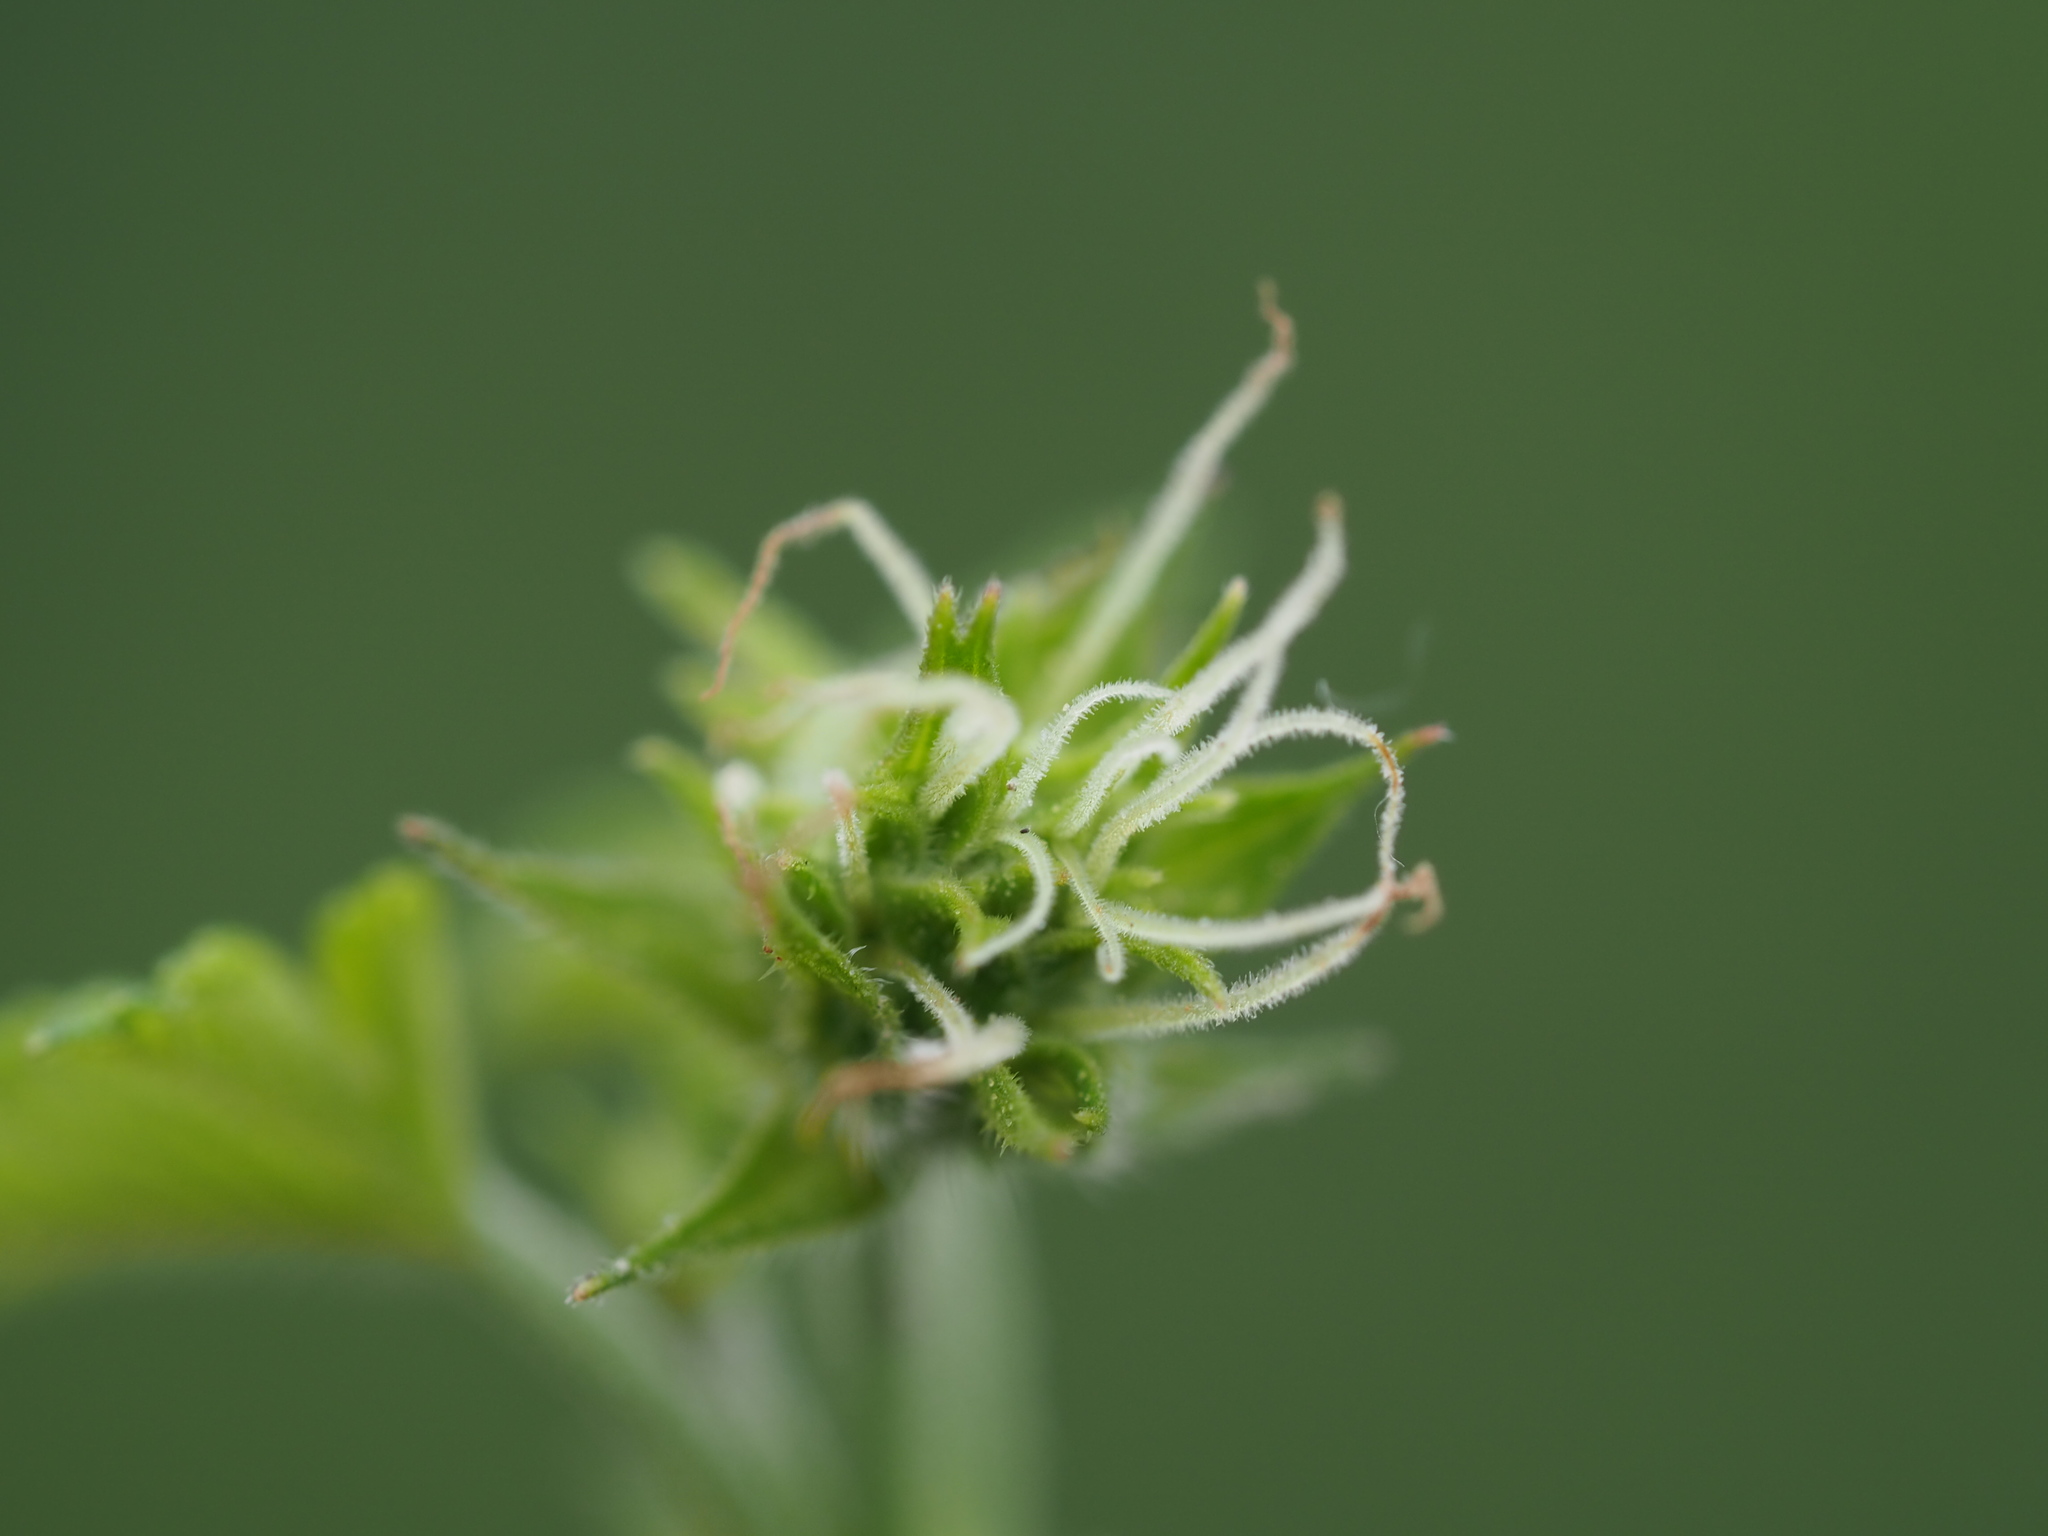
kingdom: Plantae
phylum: Tracheophyta
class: Magnoliopsida
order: Rosales
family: Cannabaceae
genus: Humulus
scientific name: Humulus scandens
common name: Japanese hop
